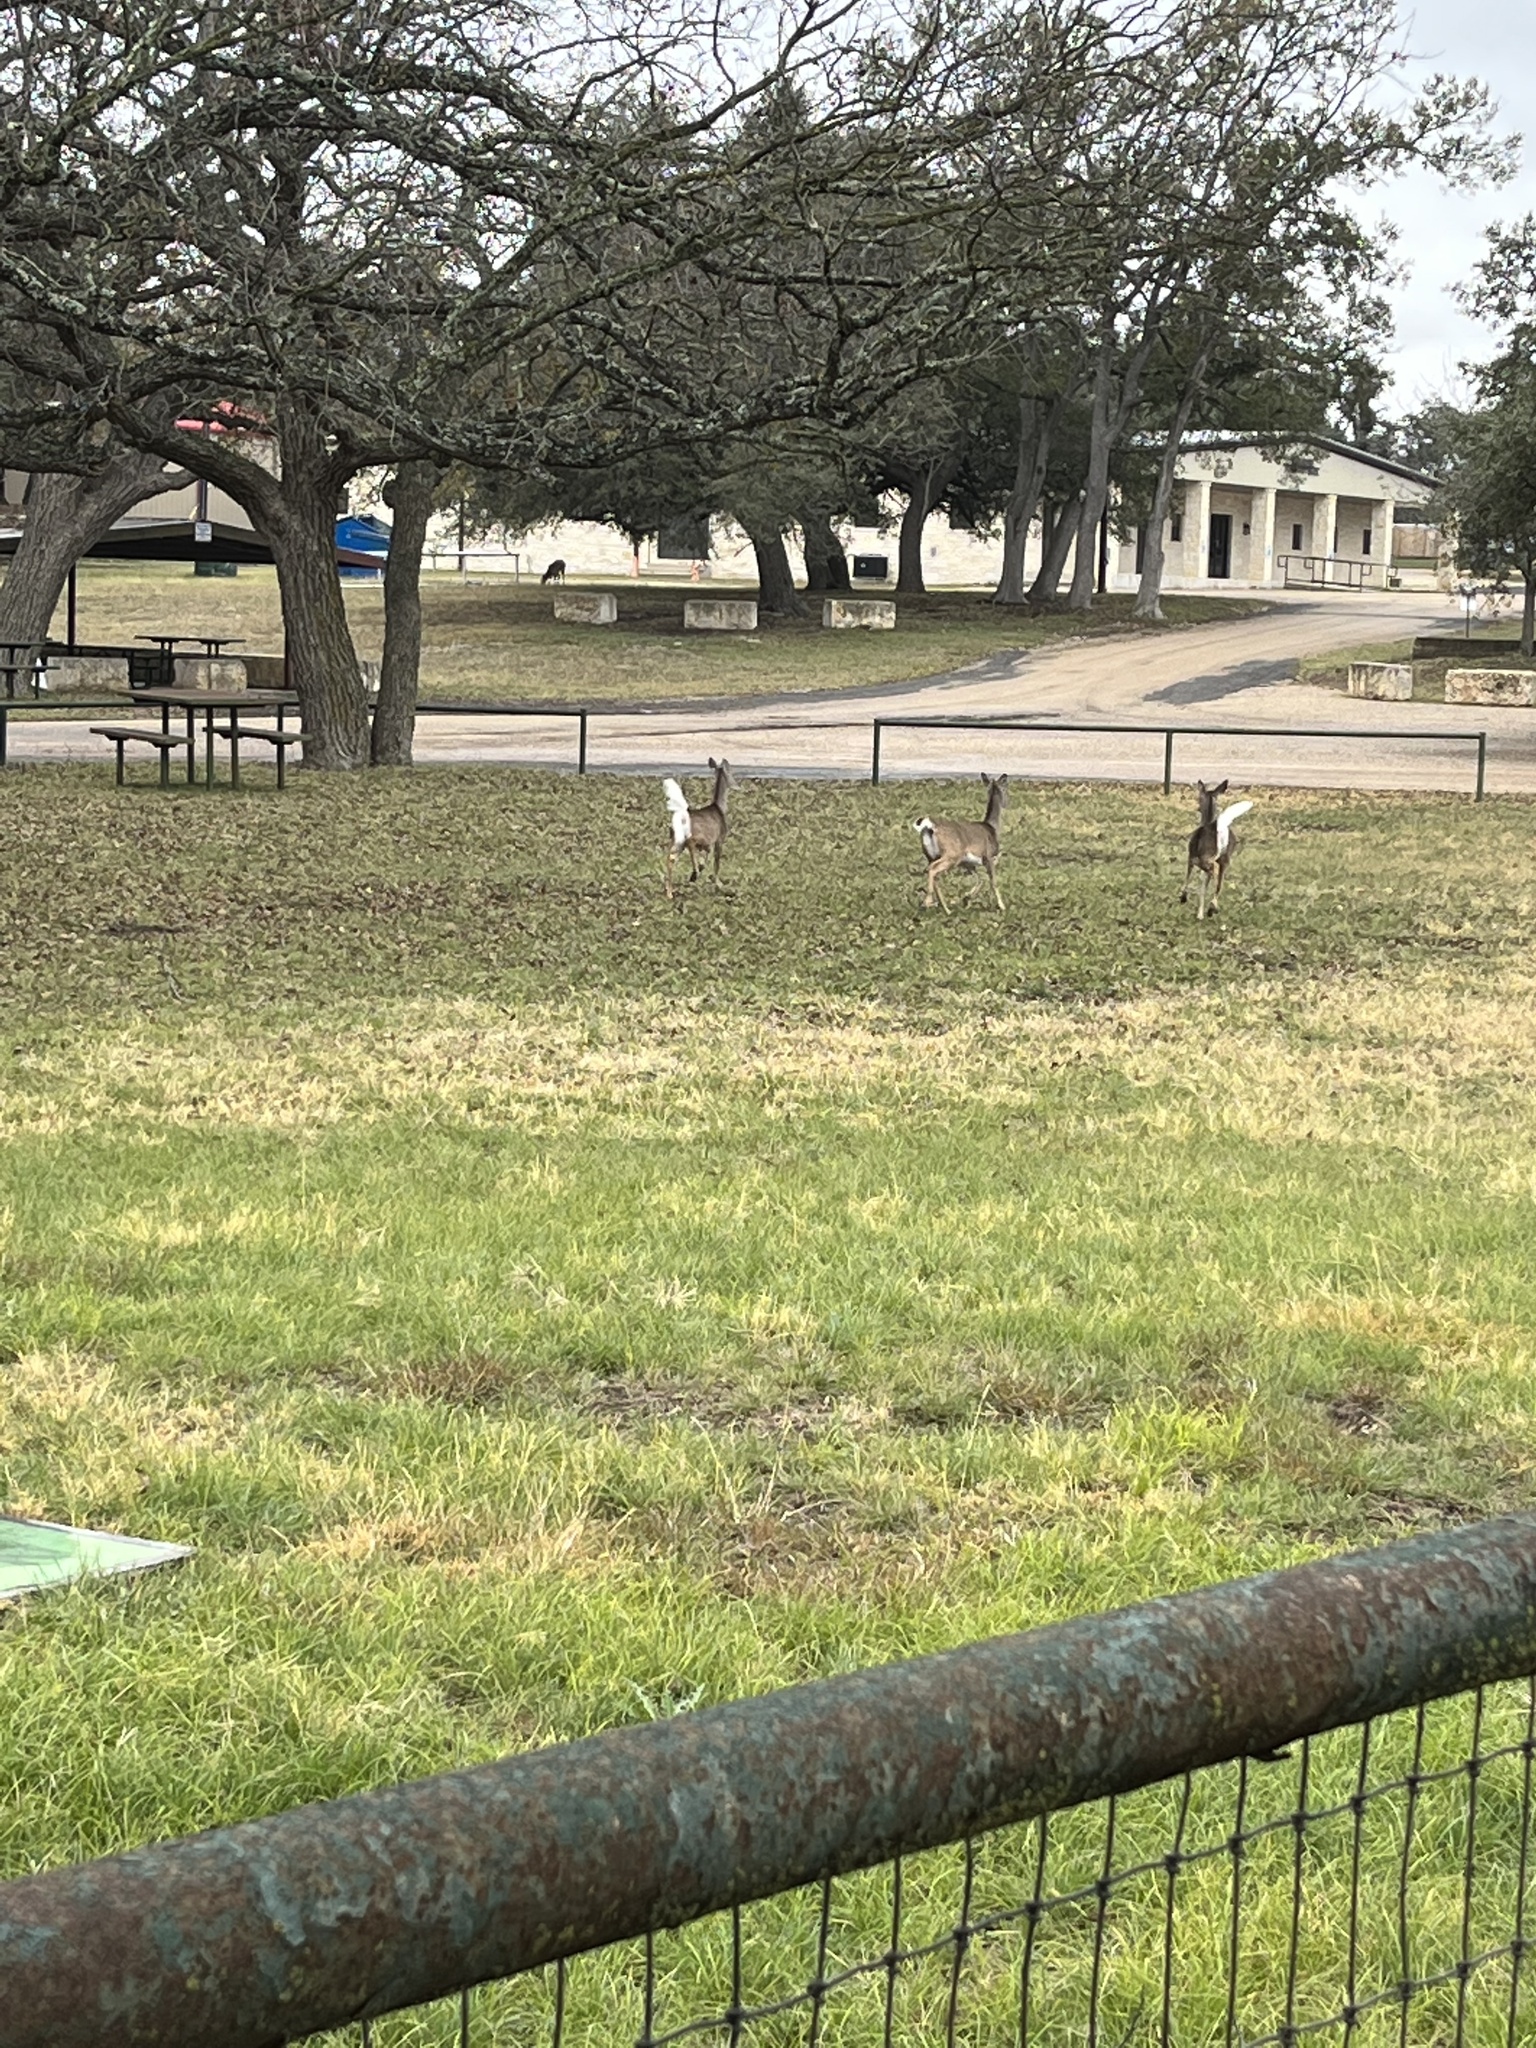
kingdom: Animalia
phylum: Chordata
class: Mammalia
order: Artiodactyla
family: Cervidae
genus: Odocoileus
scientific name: Odocoileus virginianus
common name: White-tailed deer
